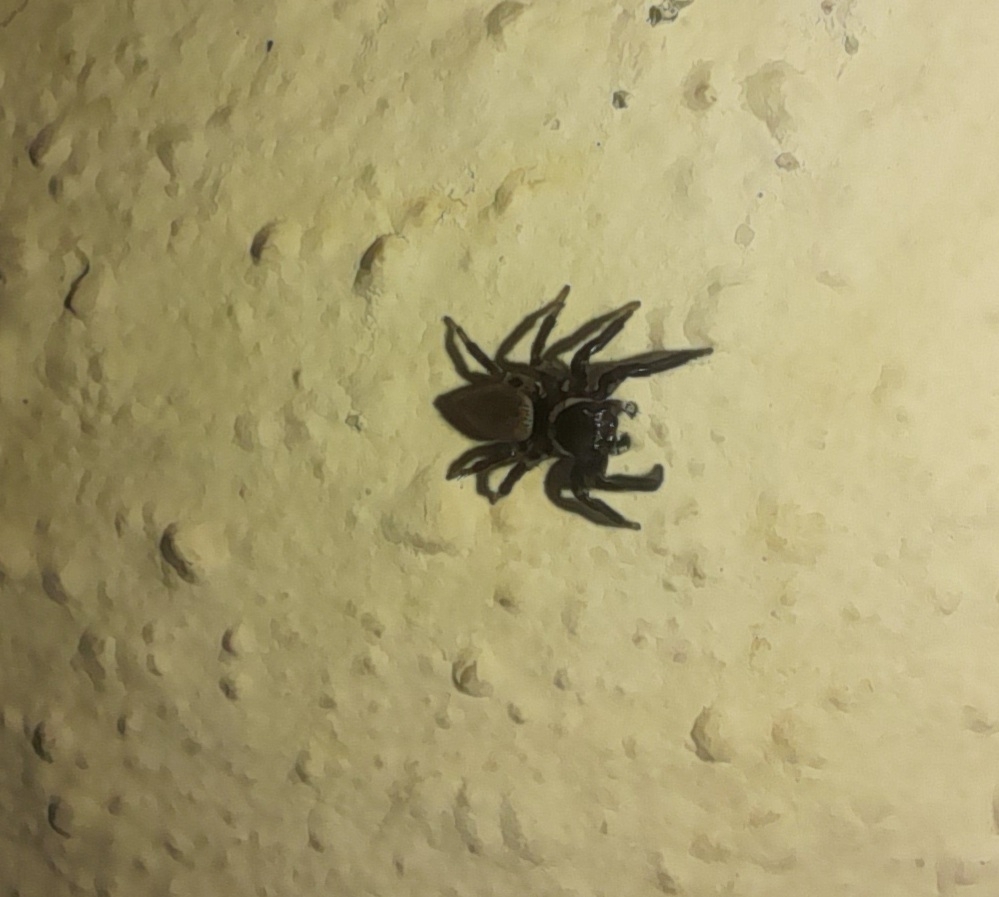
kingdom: Animalia
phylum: Arthropoda
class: Arachnida
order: Araneae
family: Salticidae
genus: Evarcha
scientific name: Evarcha jucunda
